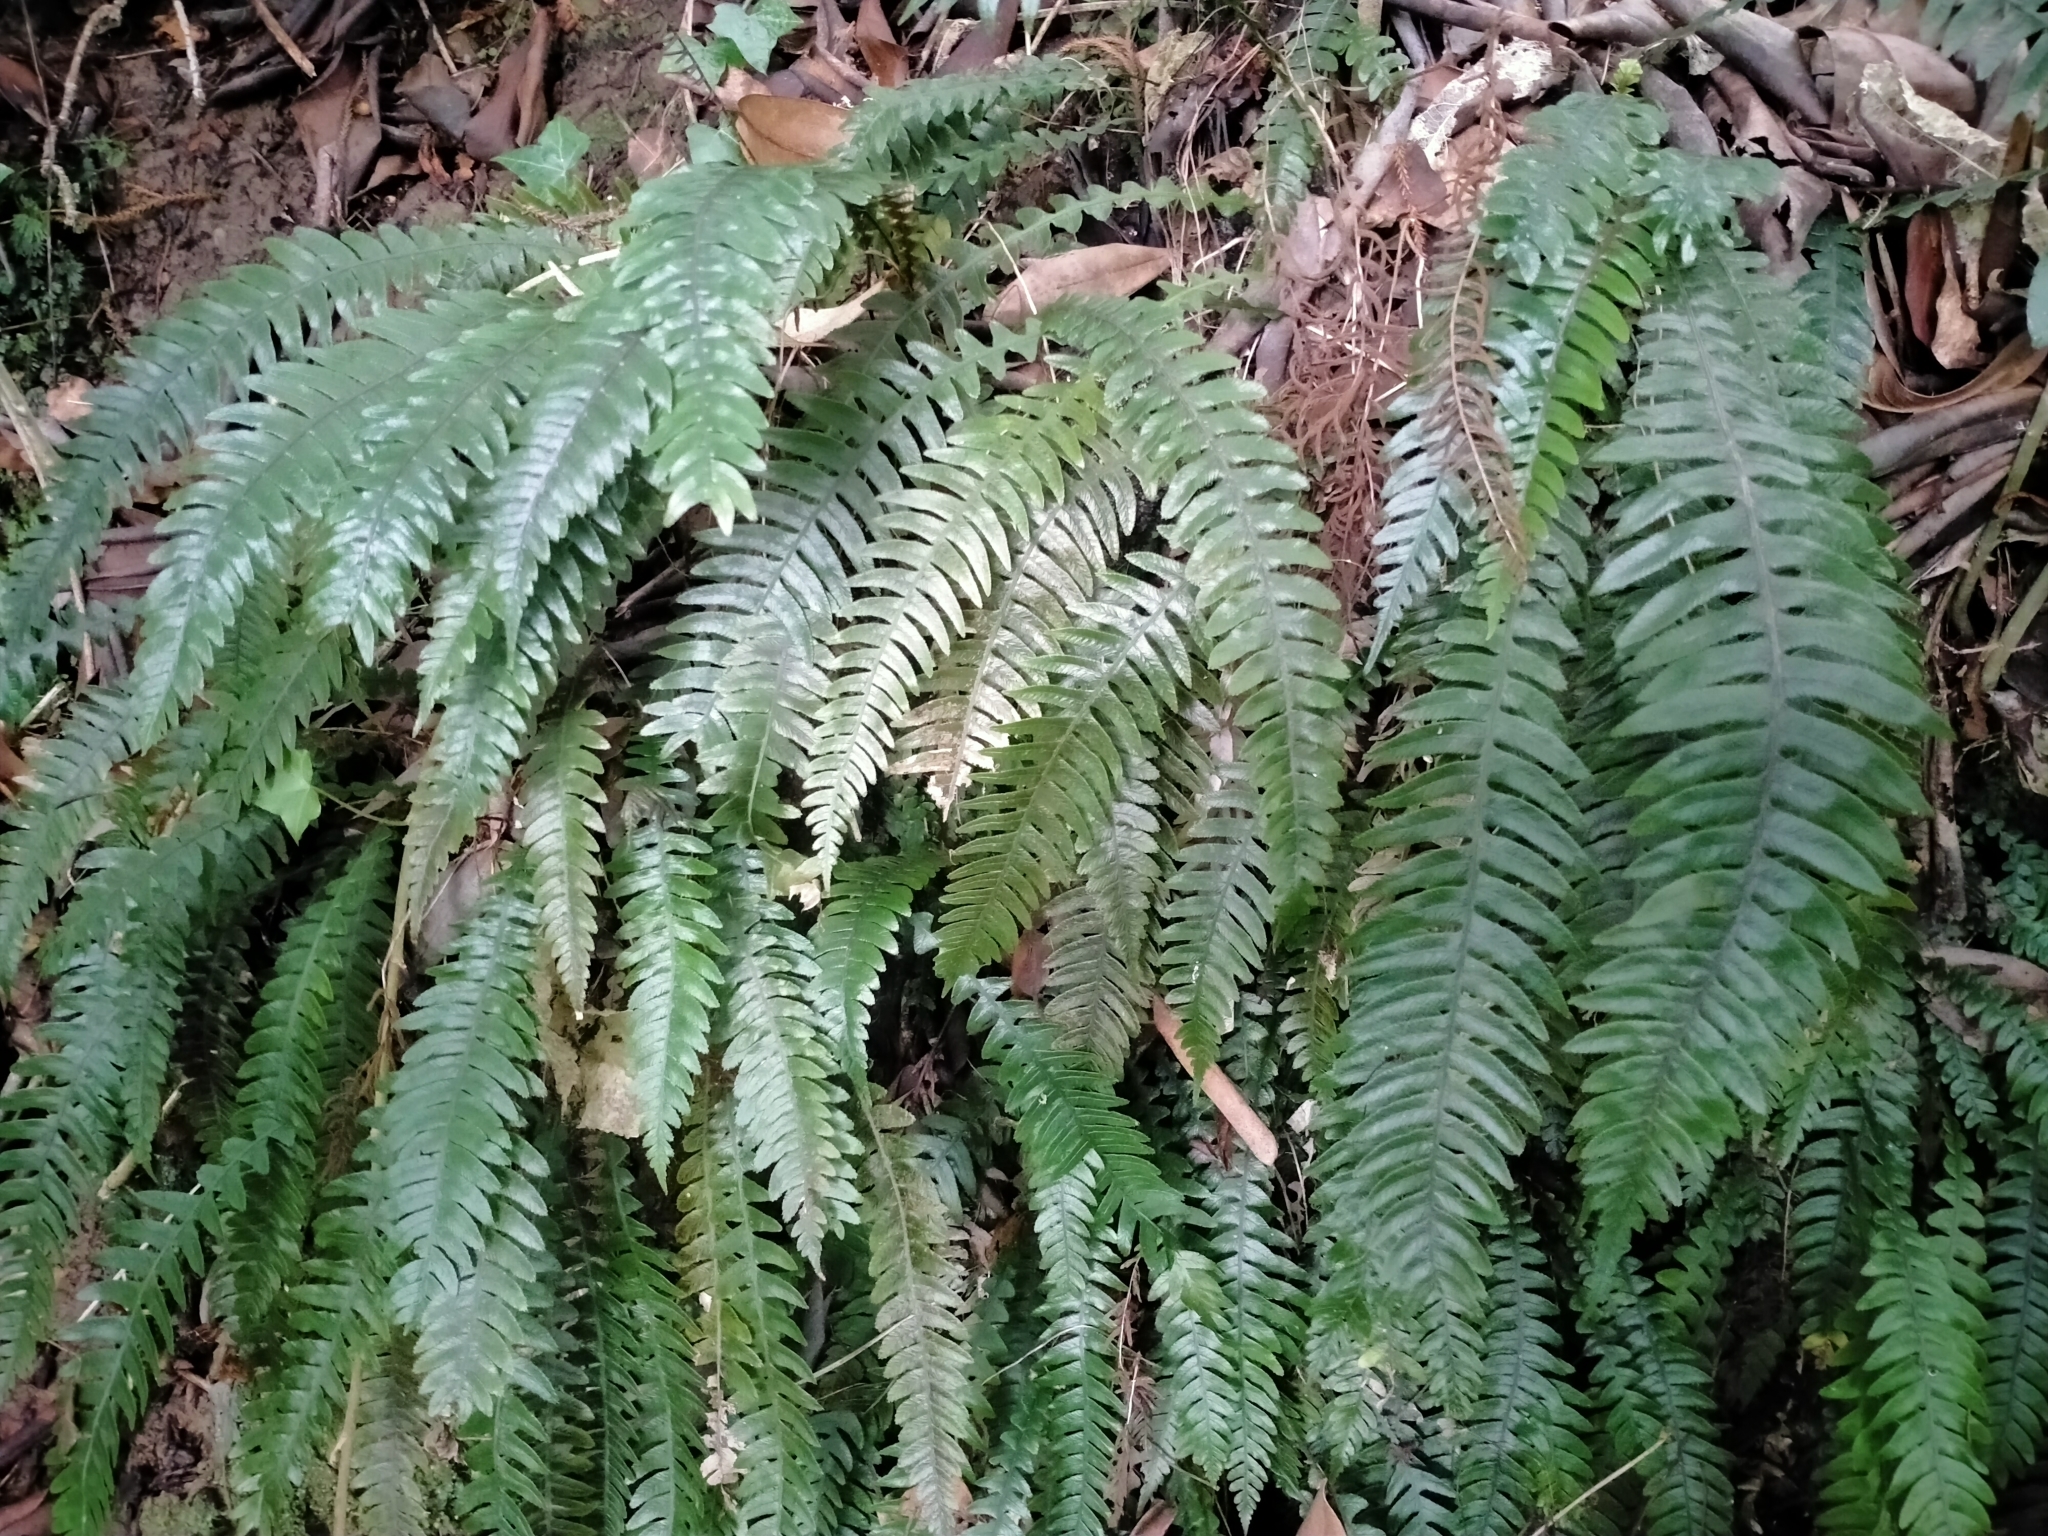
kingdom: Plantae
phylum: Tracheophyta
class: Polypodiopsida
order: Polypodiales
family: Blechnaceae
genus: Austroblechnum
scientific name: Austroblechnum lanceolatum
